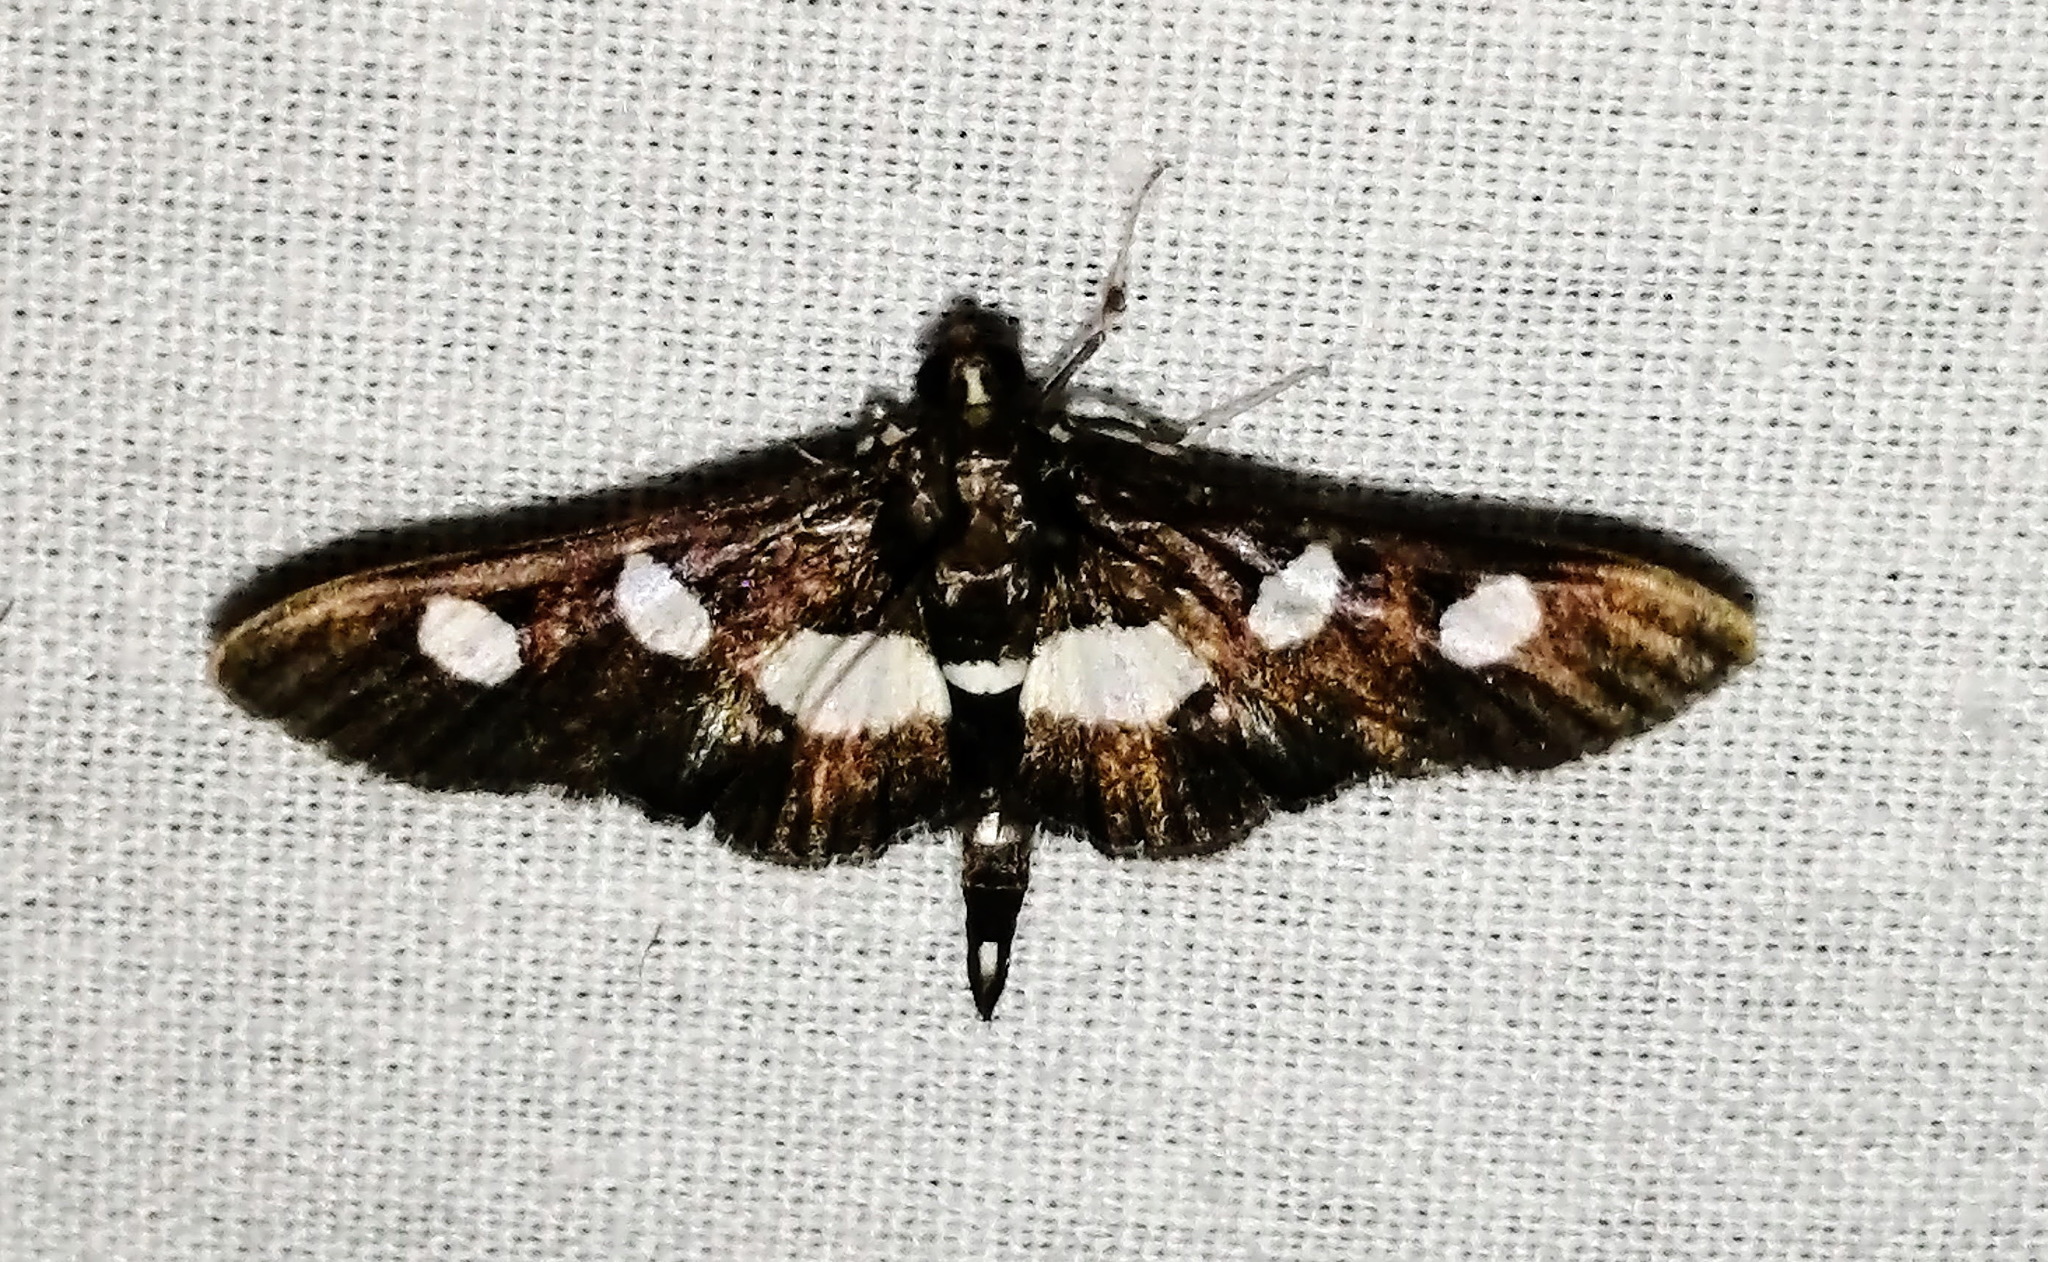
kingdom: Animalia
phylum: Arthropoda
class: Insecta
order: Lepidoptera
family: Crambidae
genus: Desmia
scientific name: Desmia
